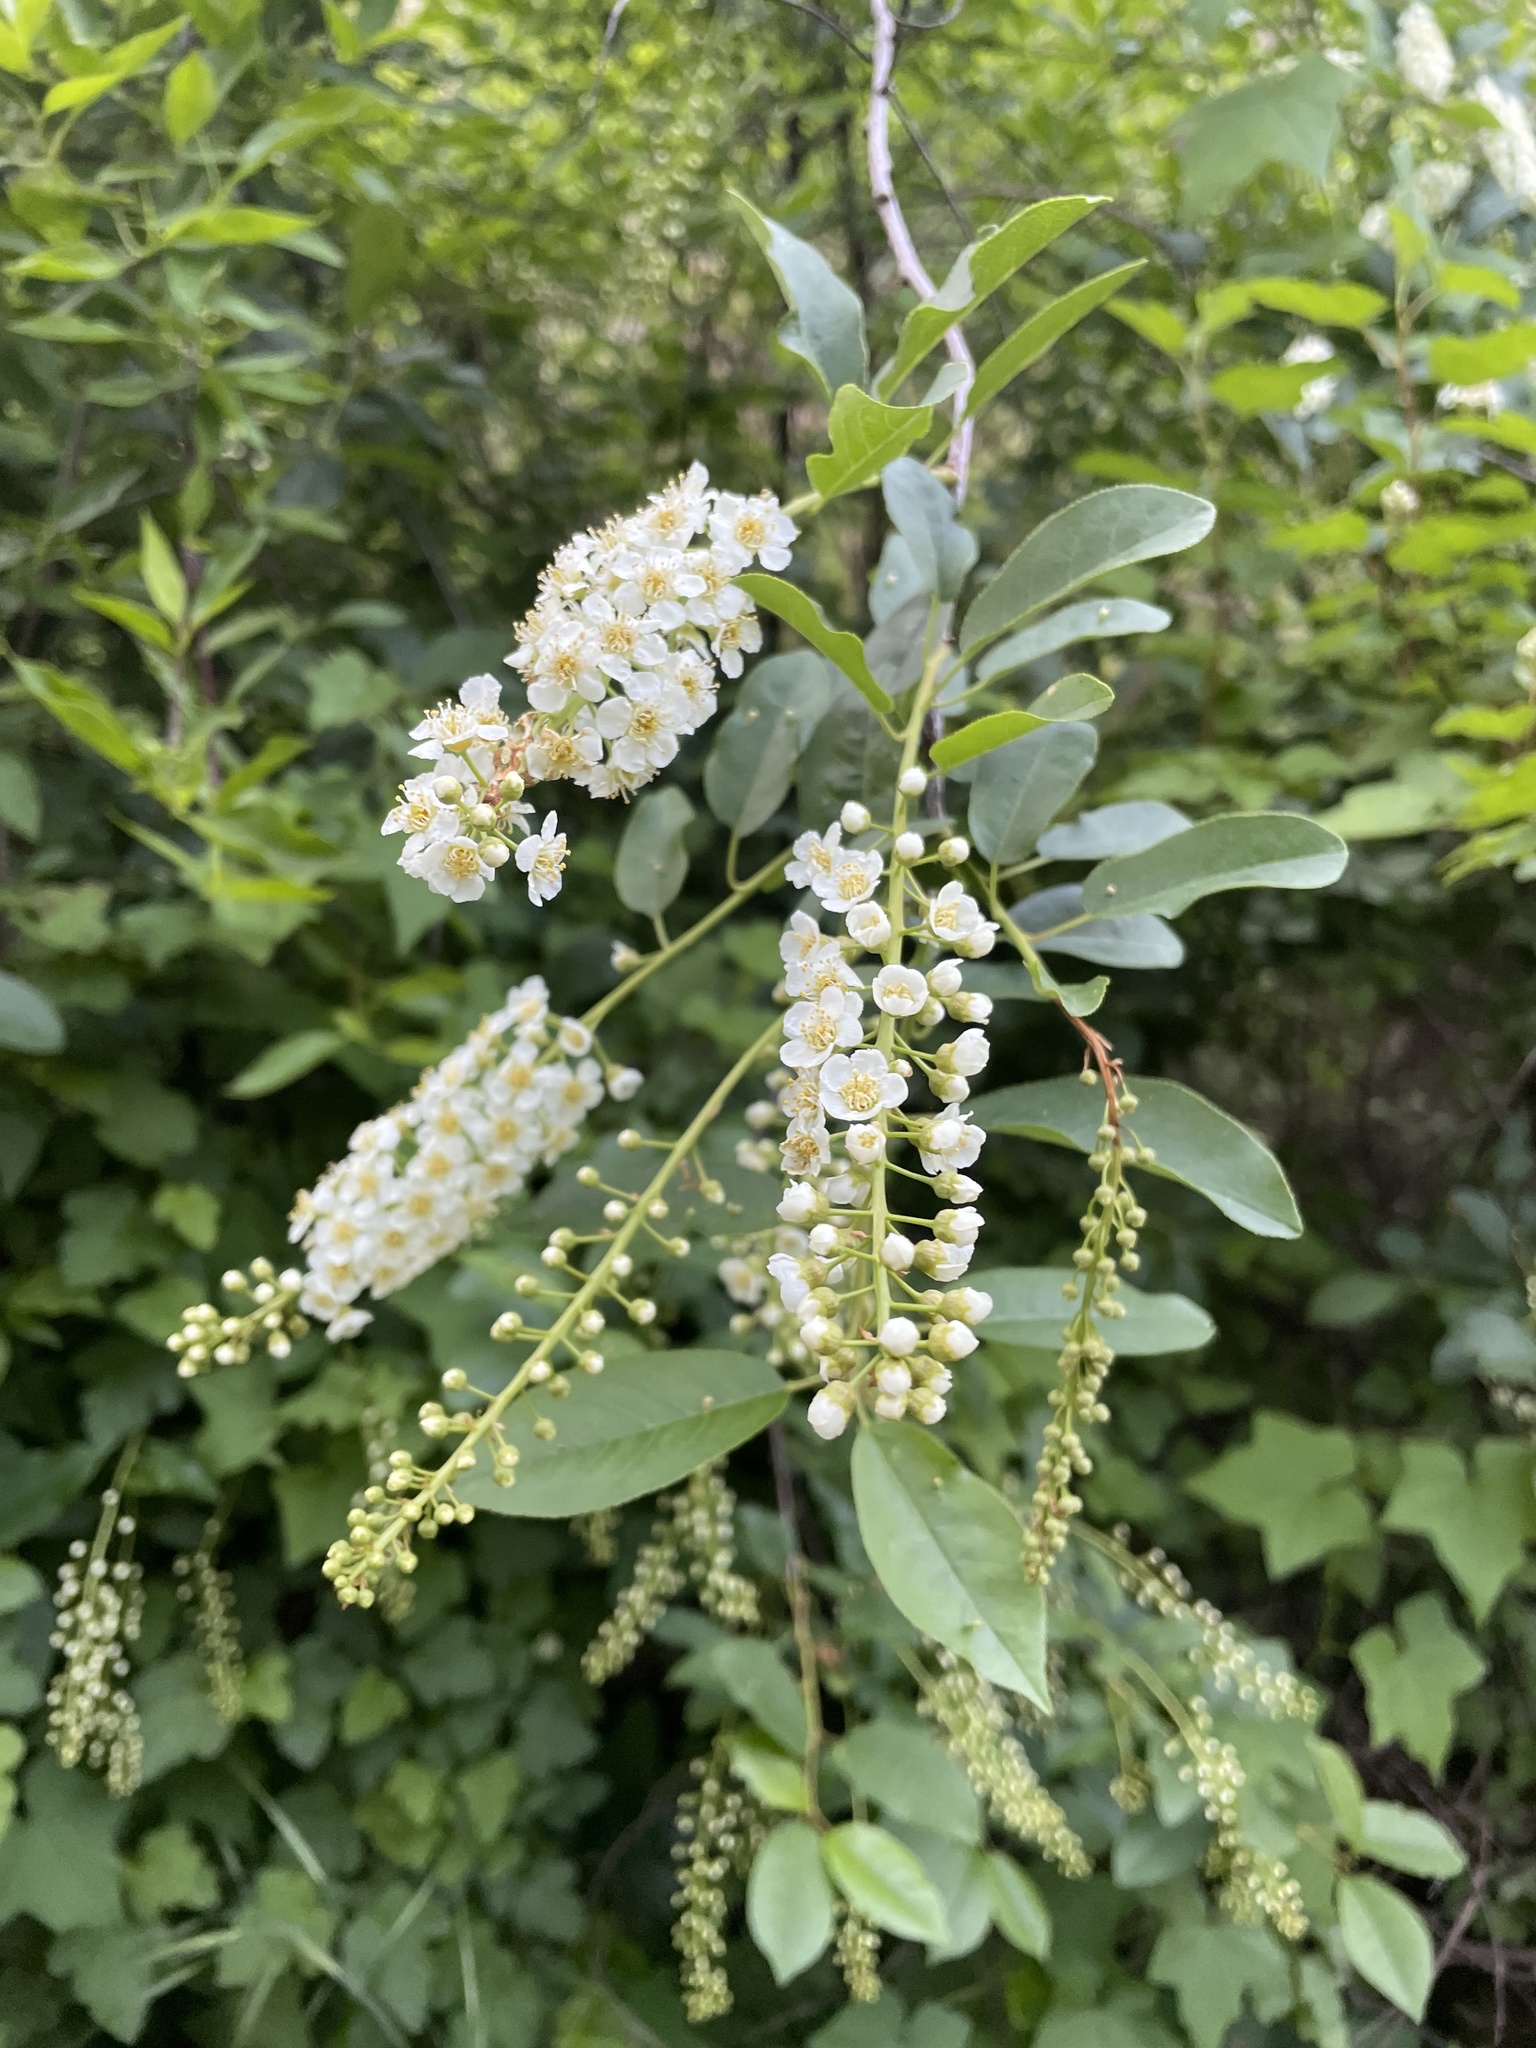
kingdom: Plantae
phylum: Tracheophyta
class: Magnoliopsida
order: Rosales
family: Rosaceae
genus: Prunus
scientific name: Prunus virginiana
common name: Chokecherry
